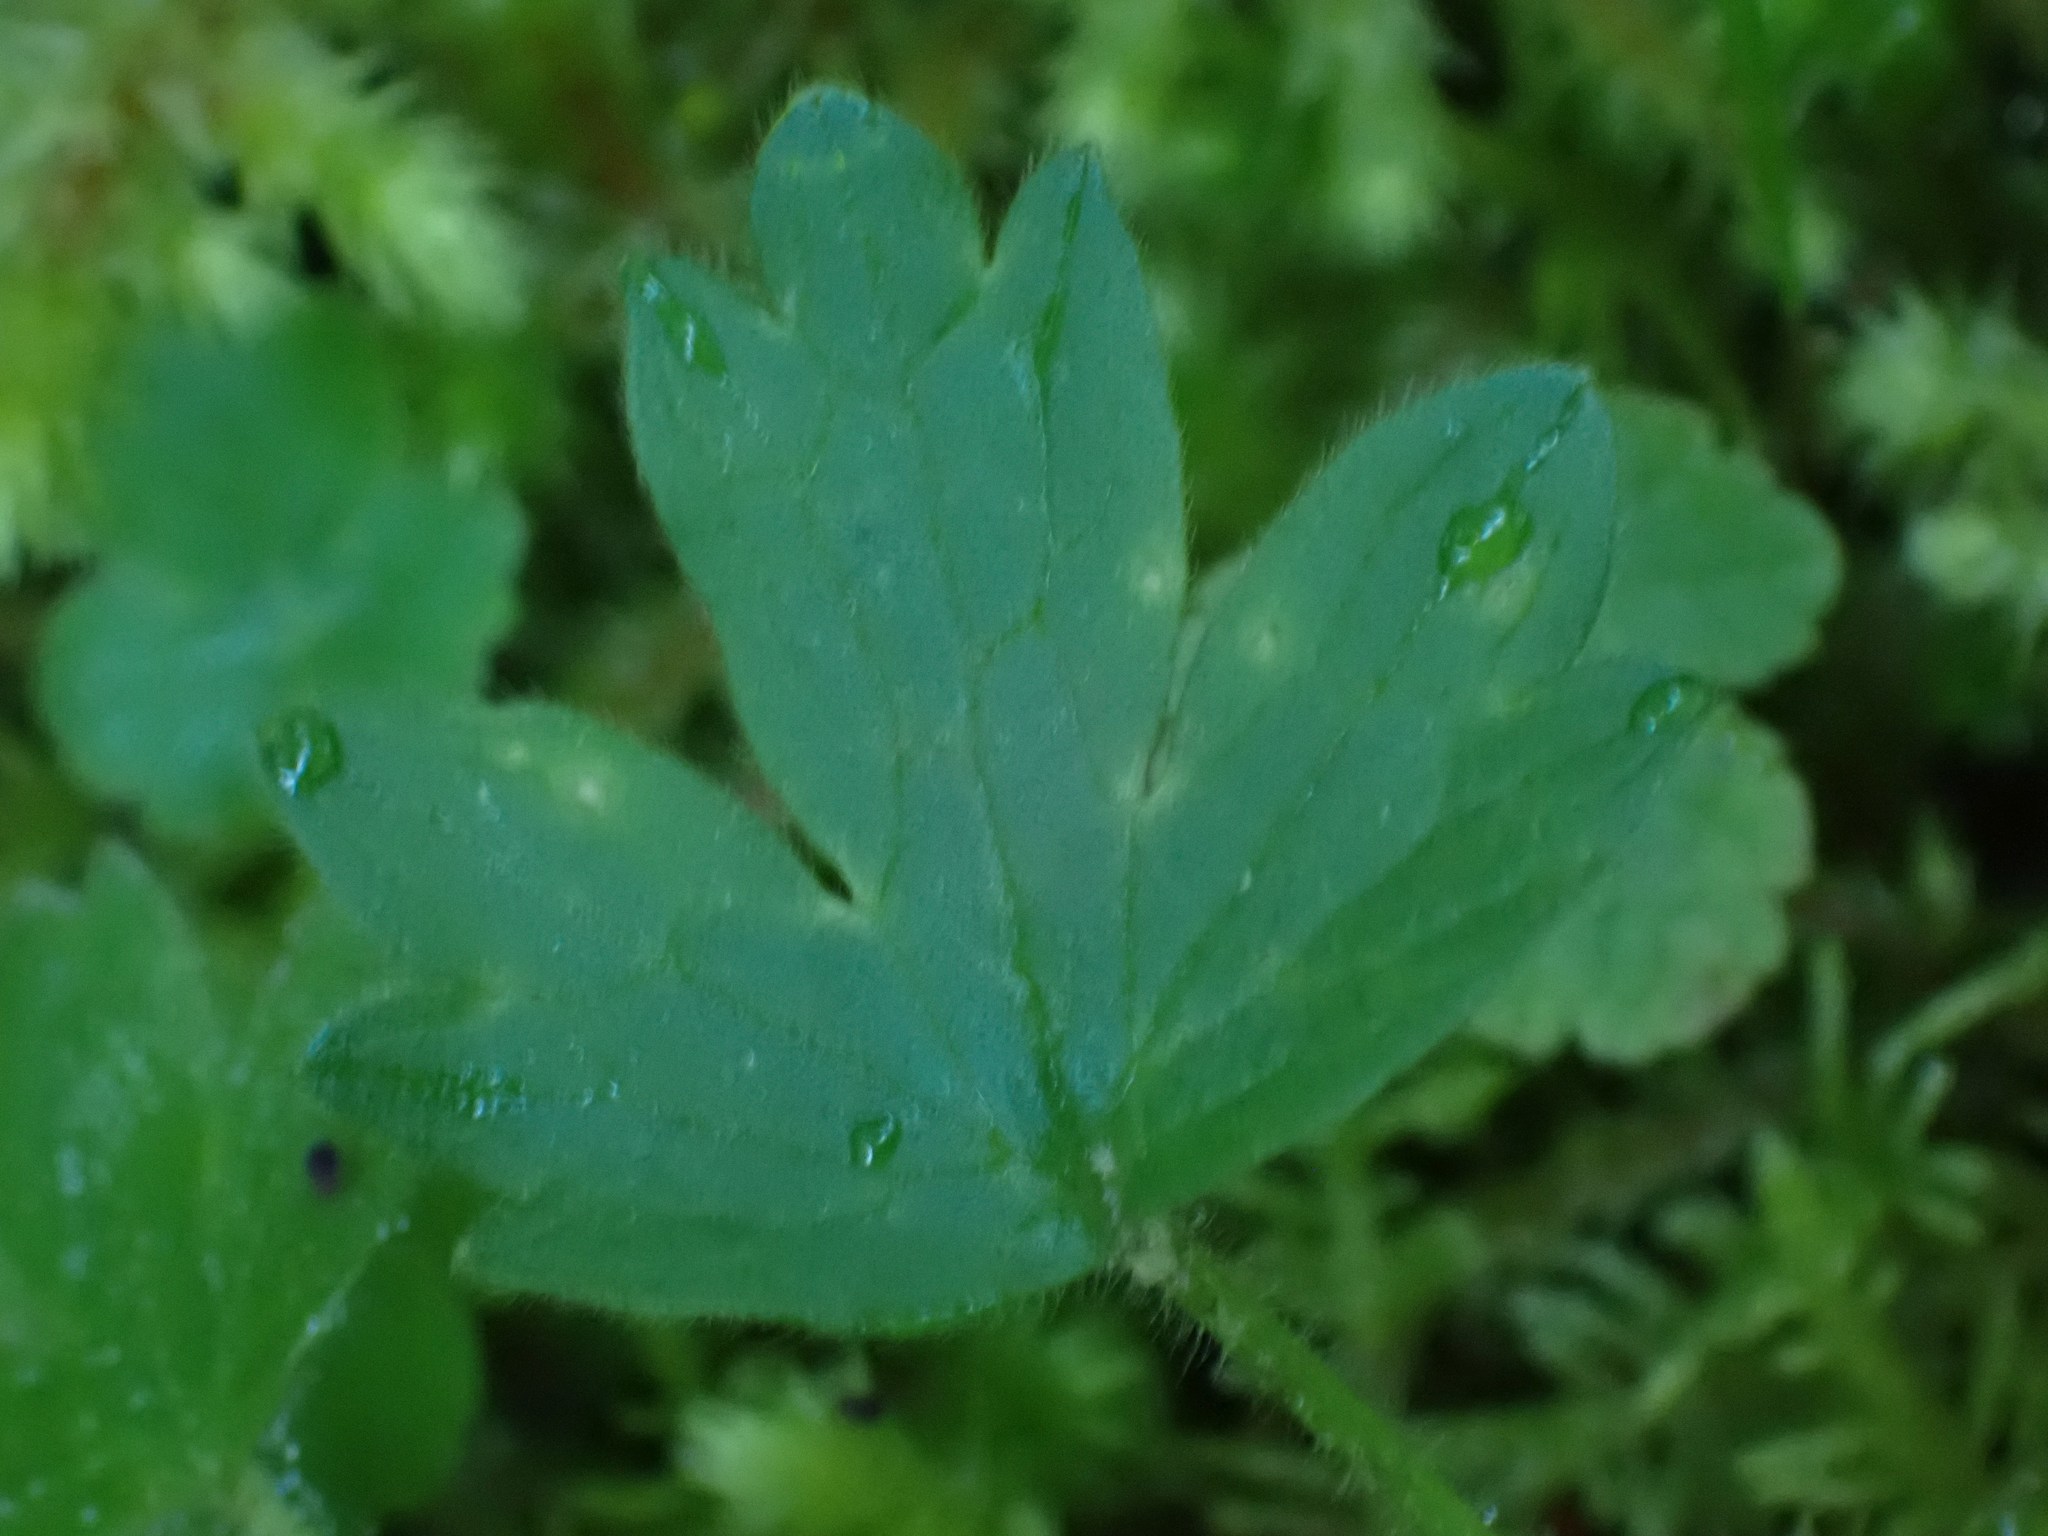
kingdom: Plantae
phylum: Tracheophyta
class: Magnoliopsida
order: Ranunculales
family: Ranunculaceae
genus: Ranunculus
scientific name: Ranunculus occidentalis
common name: Western buttercup
